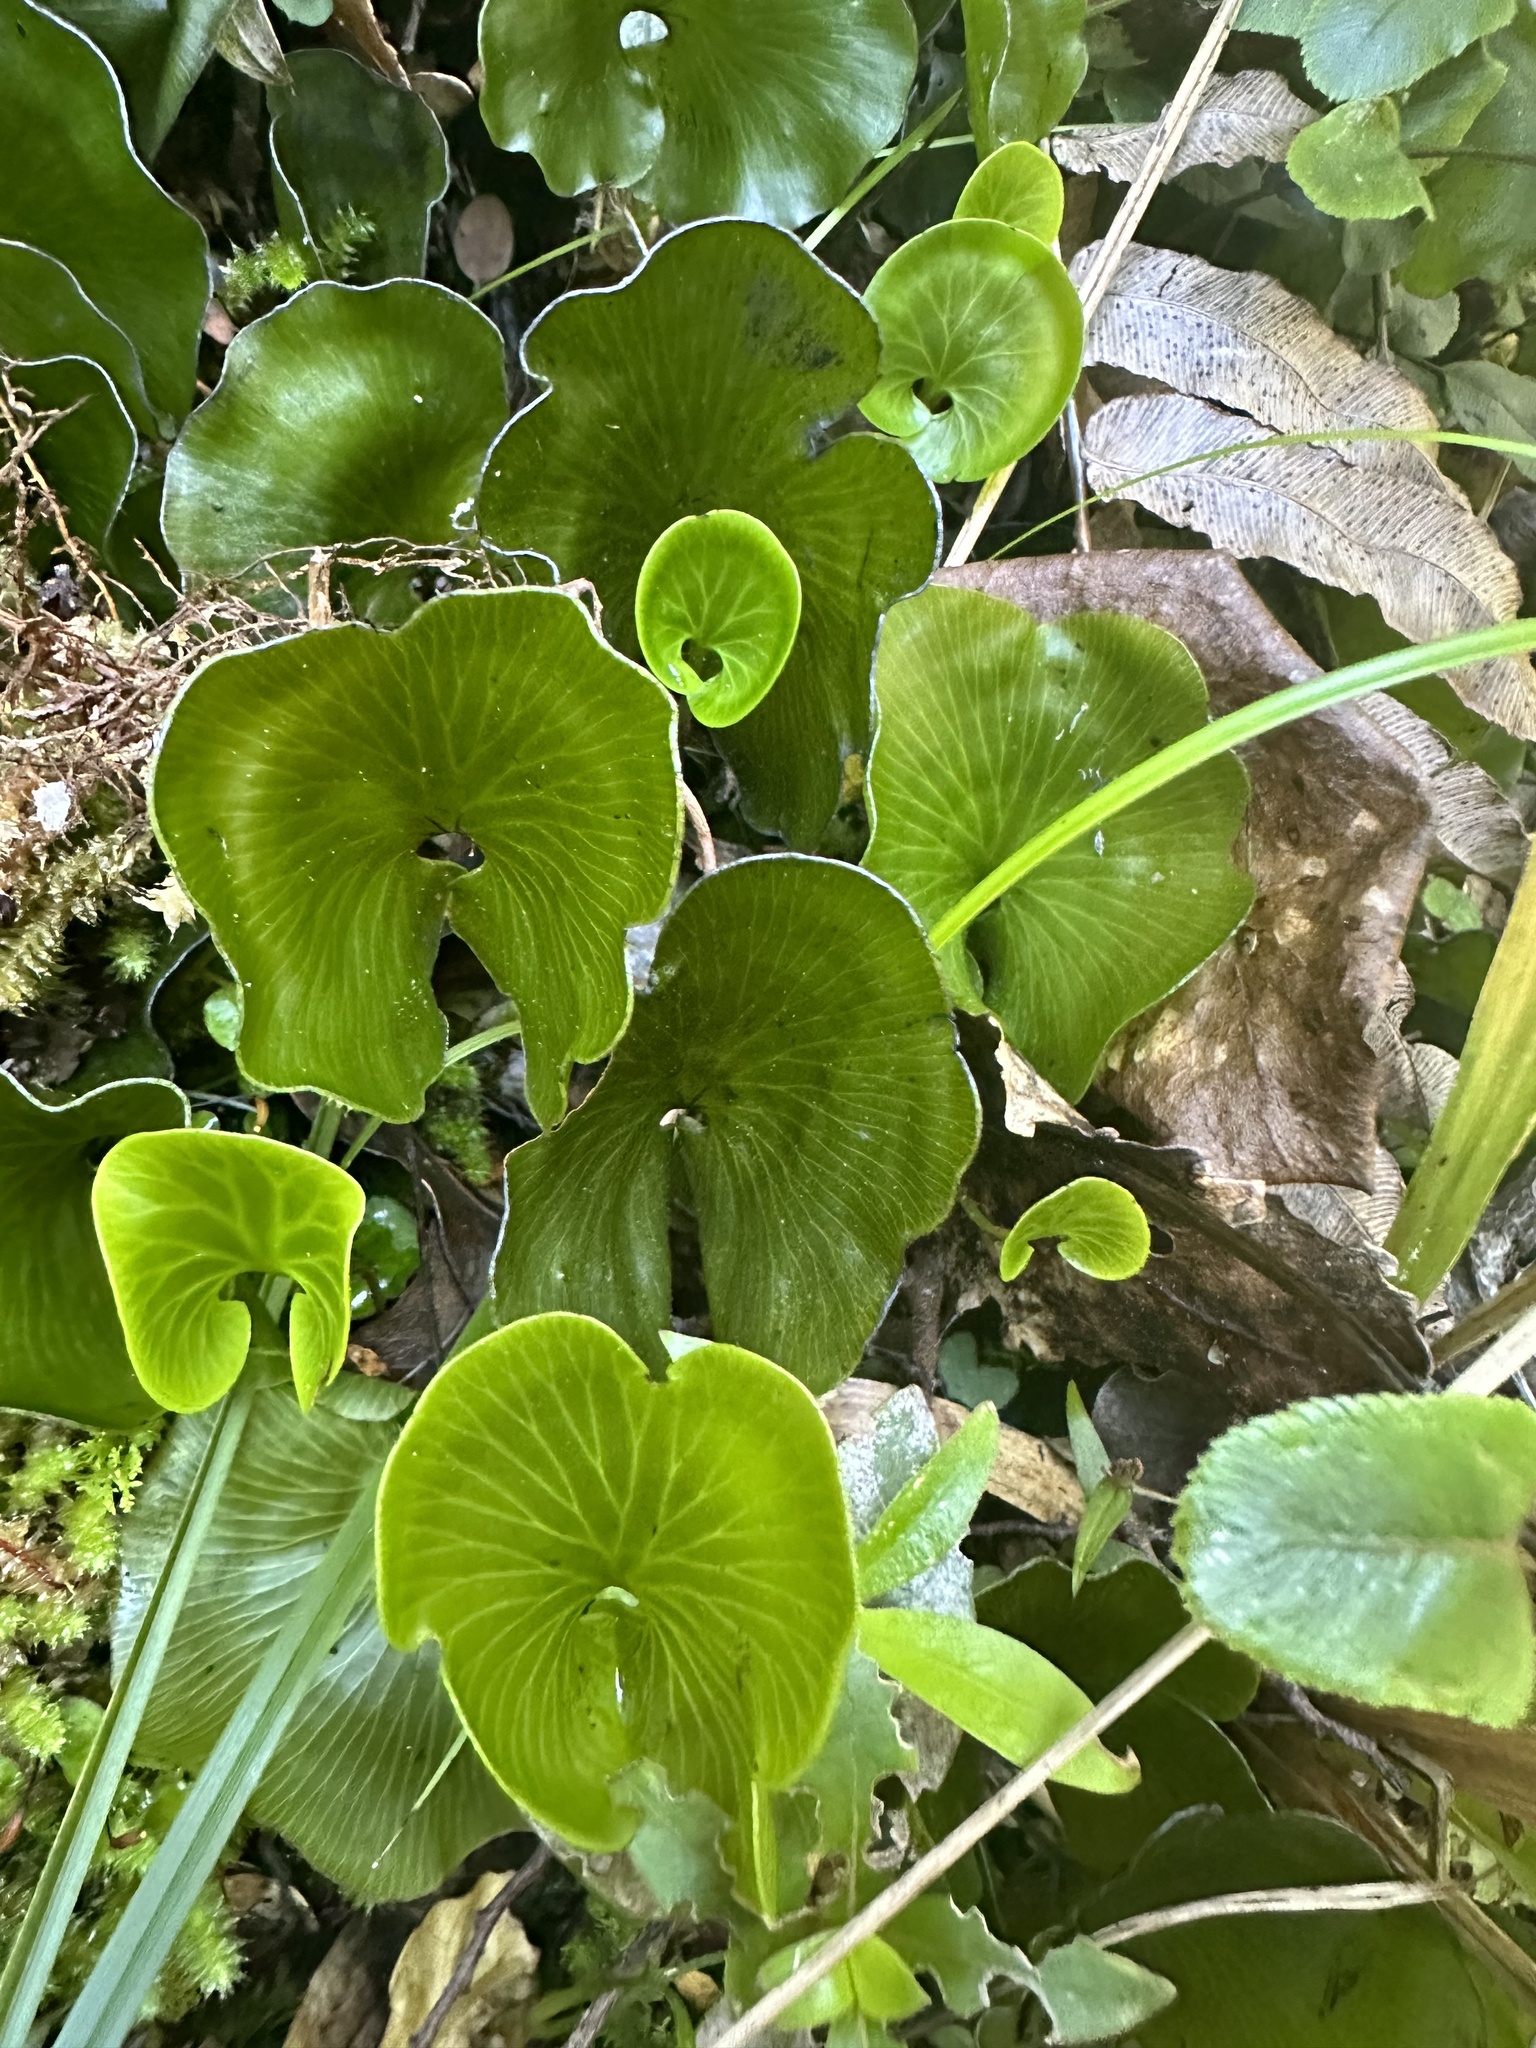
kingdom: Plantae
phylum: Tracheophyta
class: Polypodiopsida
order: Hymenophyllales
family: Hymenophyllaceae
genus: Hymenophyllum
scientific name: Hymenophyllum nephrophyllum
